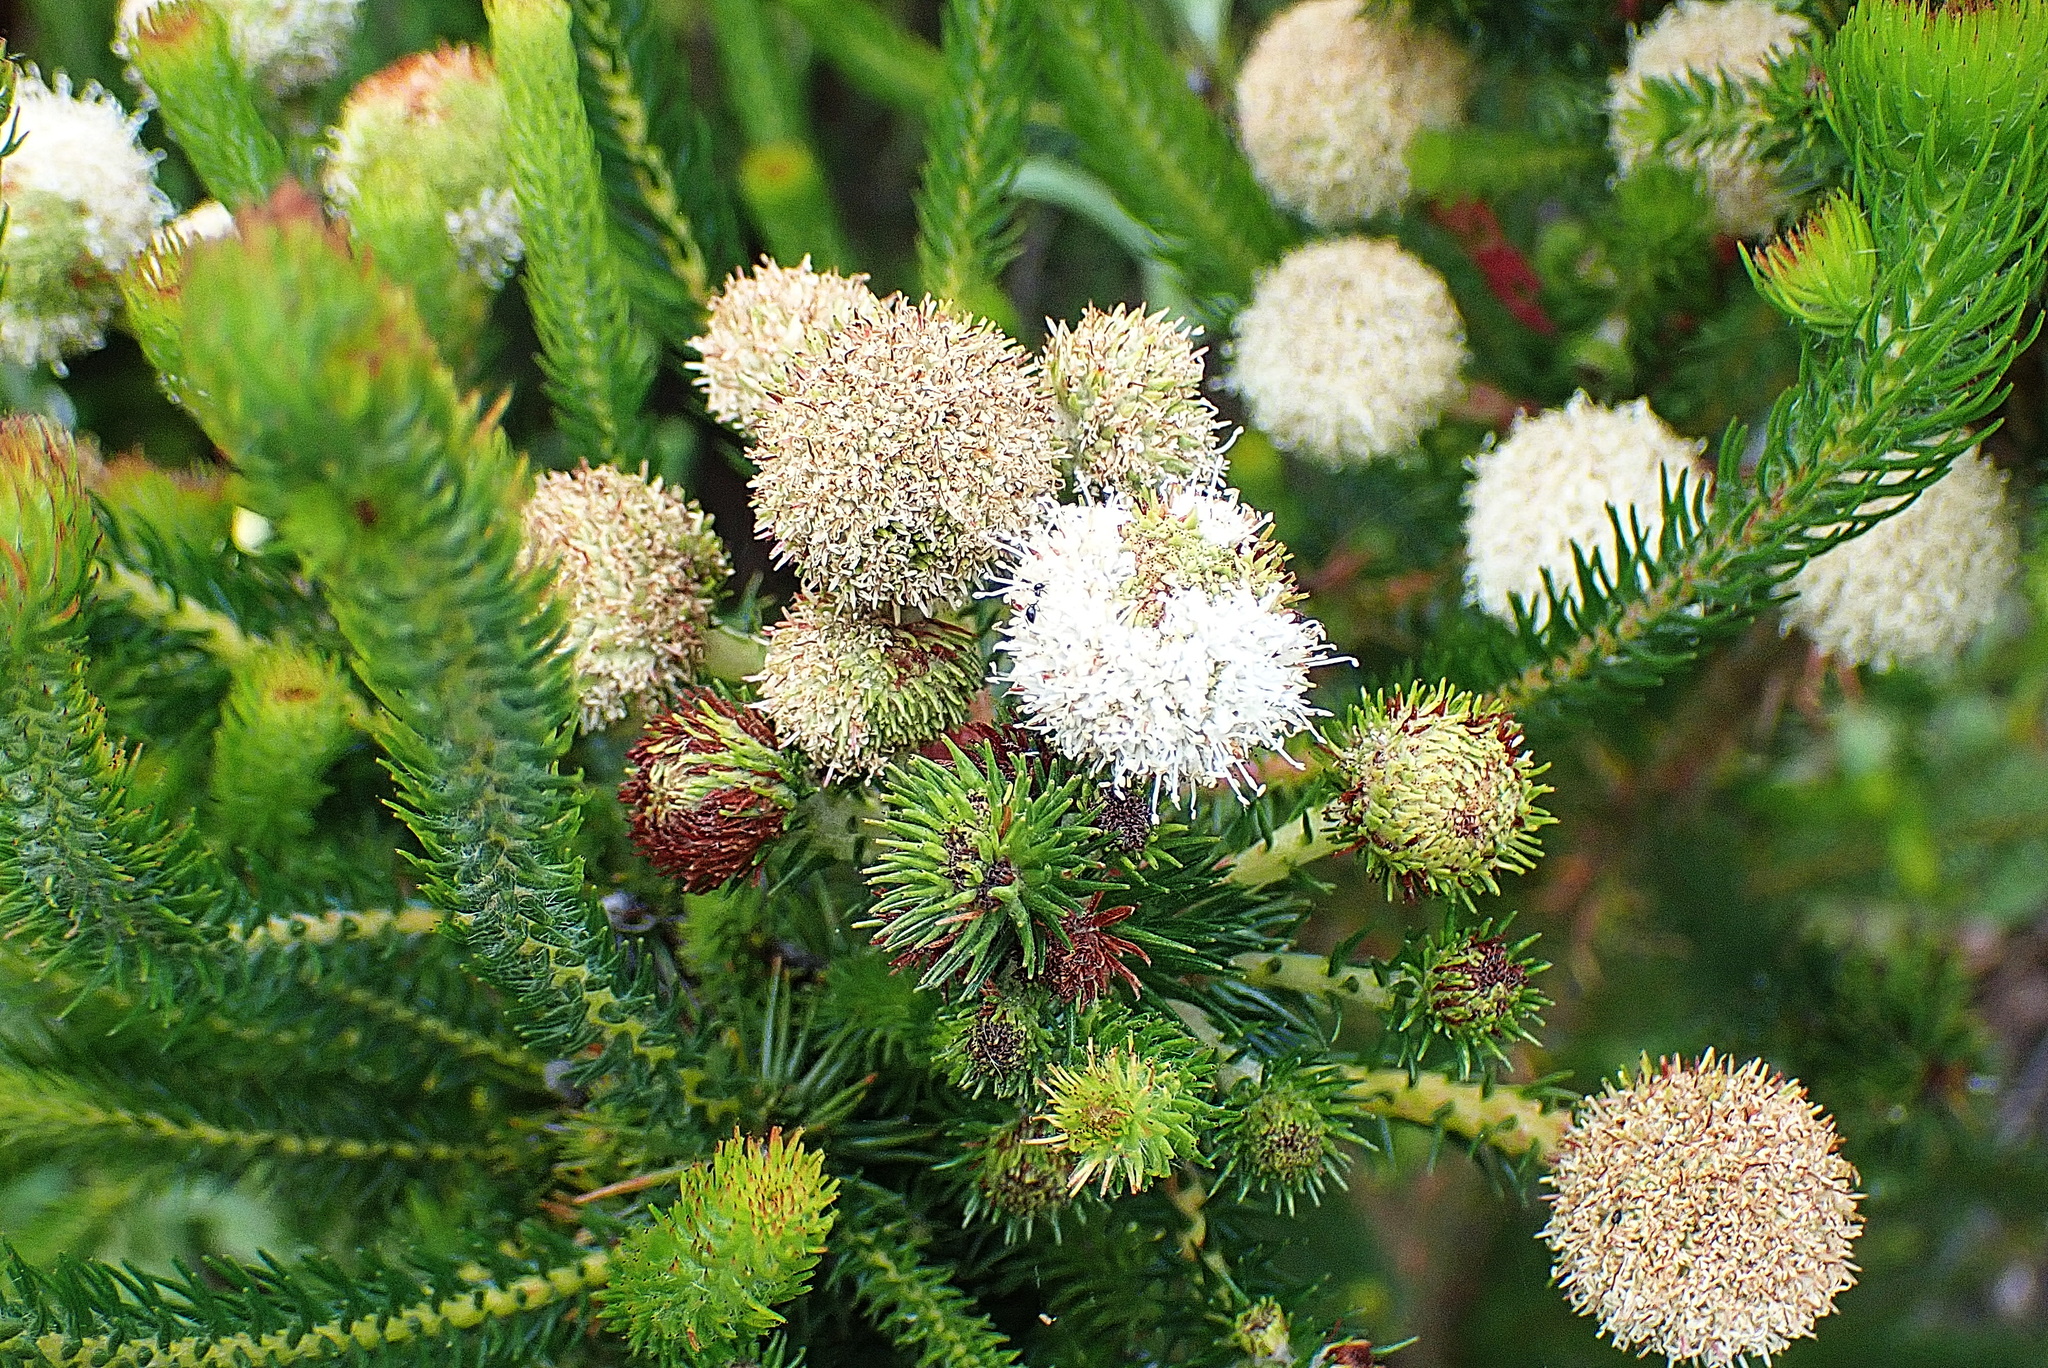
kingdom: Plantae
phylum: Tracheophyta
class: Magnoliopsida
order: Bruniales
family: Bruniaceae
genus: Berzelia
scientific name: Berzelia abrotanoides
